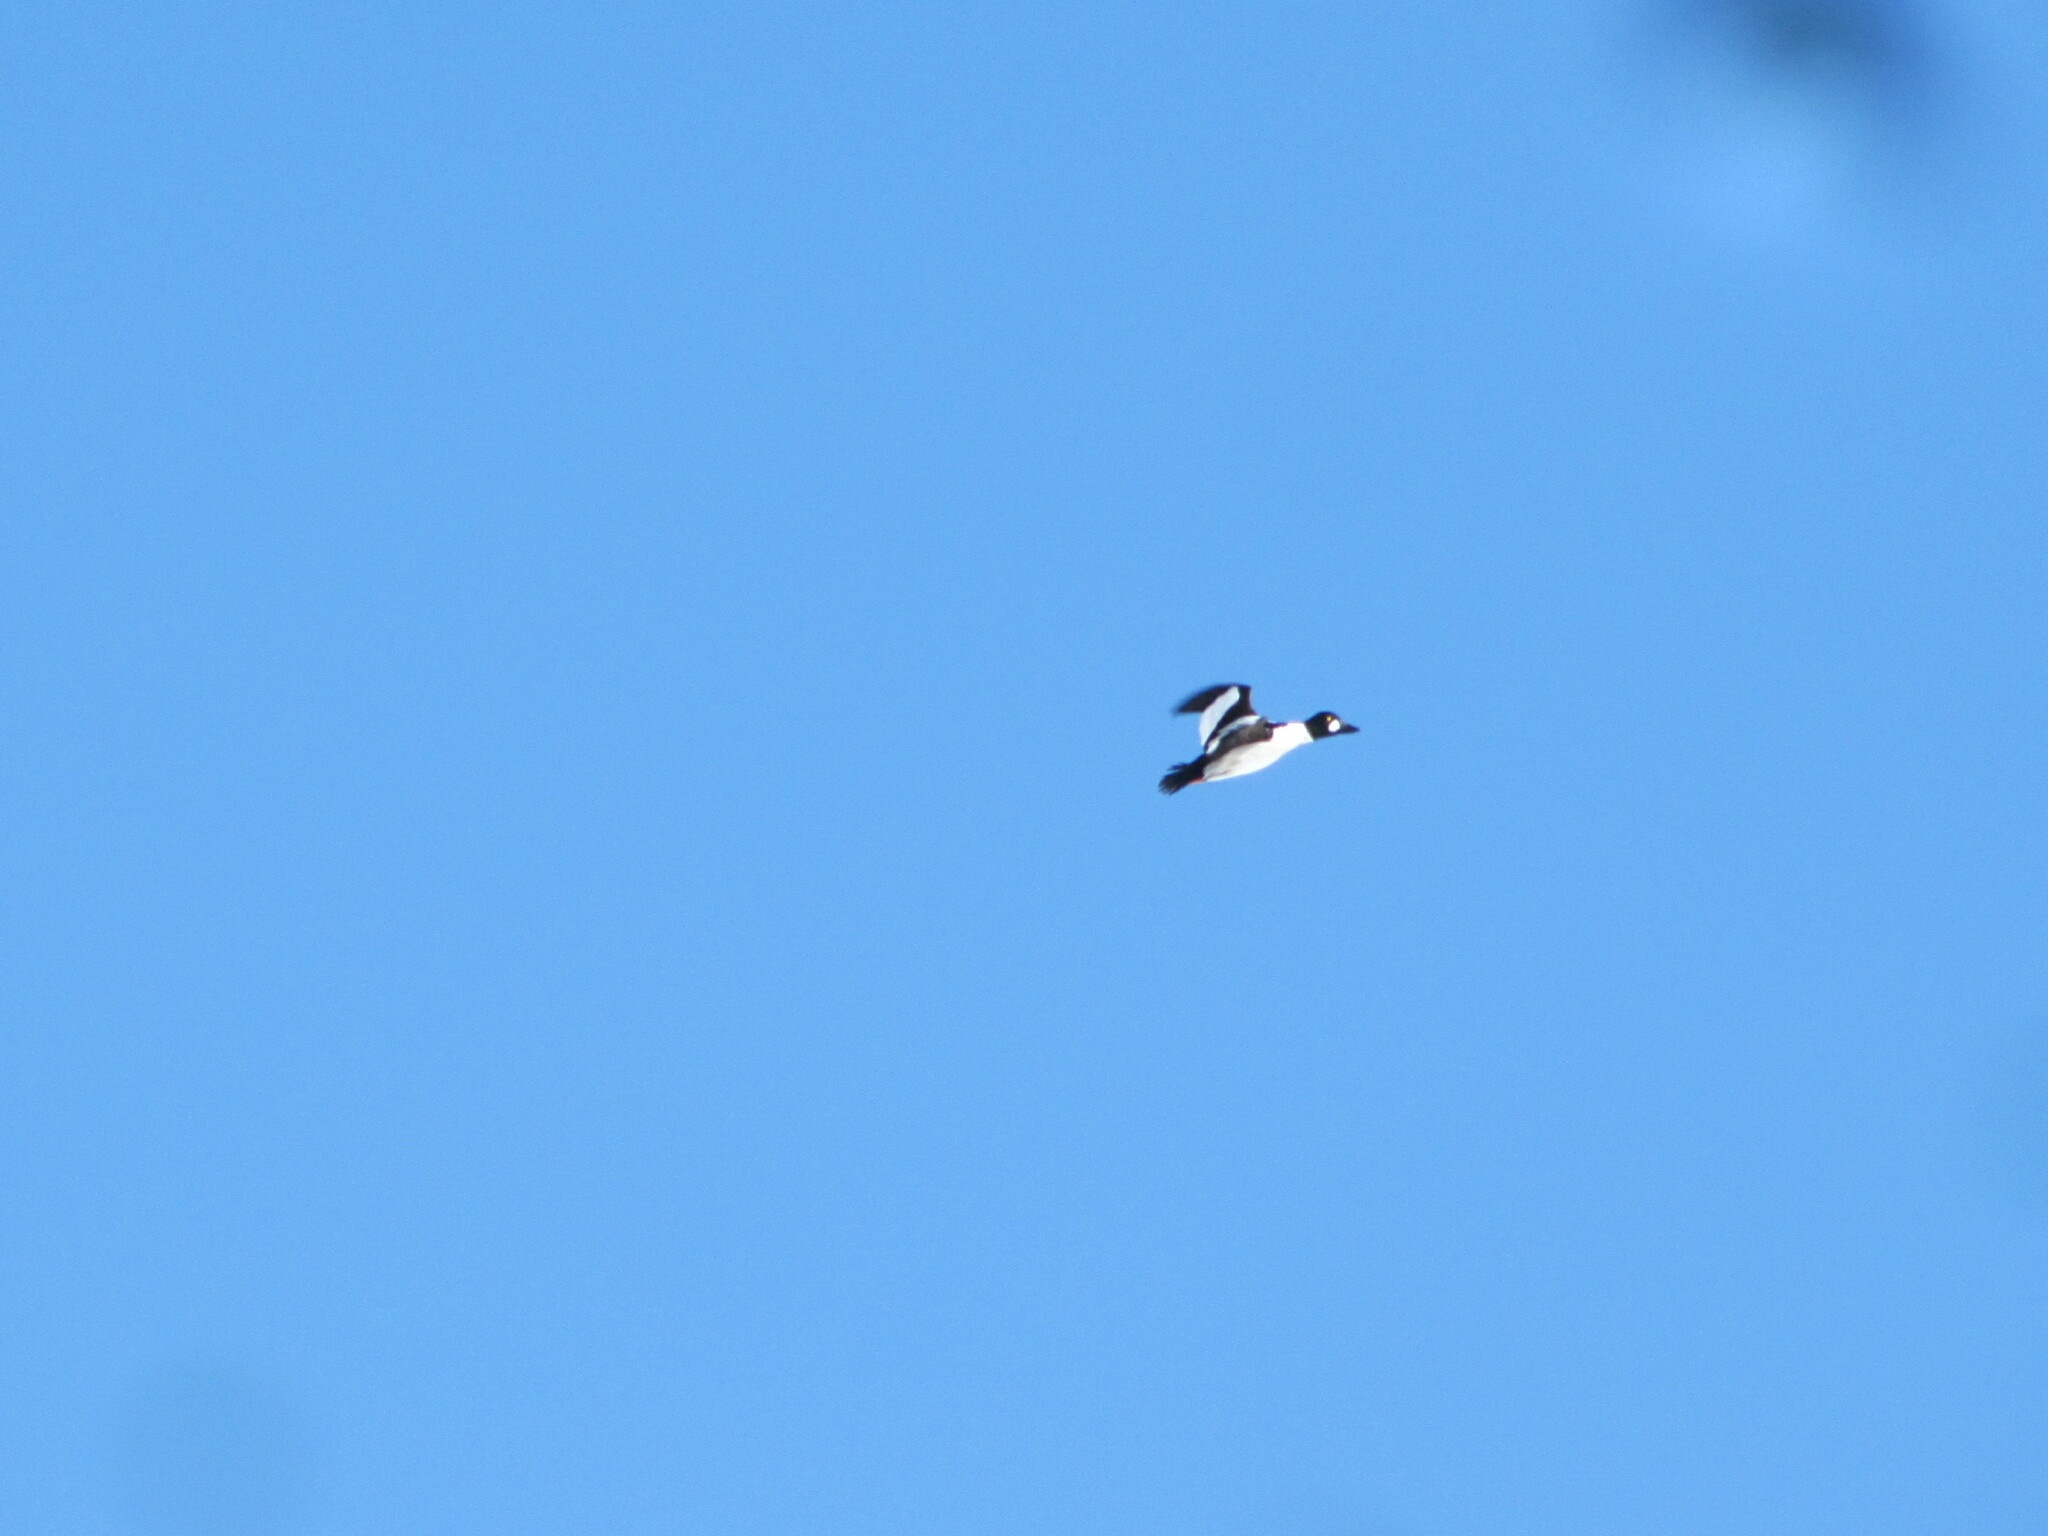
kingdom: Animalia
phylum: Chordata
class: Aves
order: Anseriformes
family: Anatidae
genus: Bucephala
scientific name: Bucephala clangula
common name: Common goldeneye
